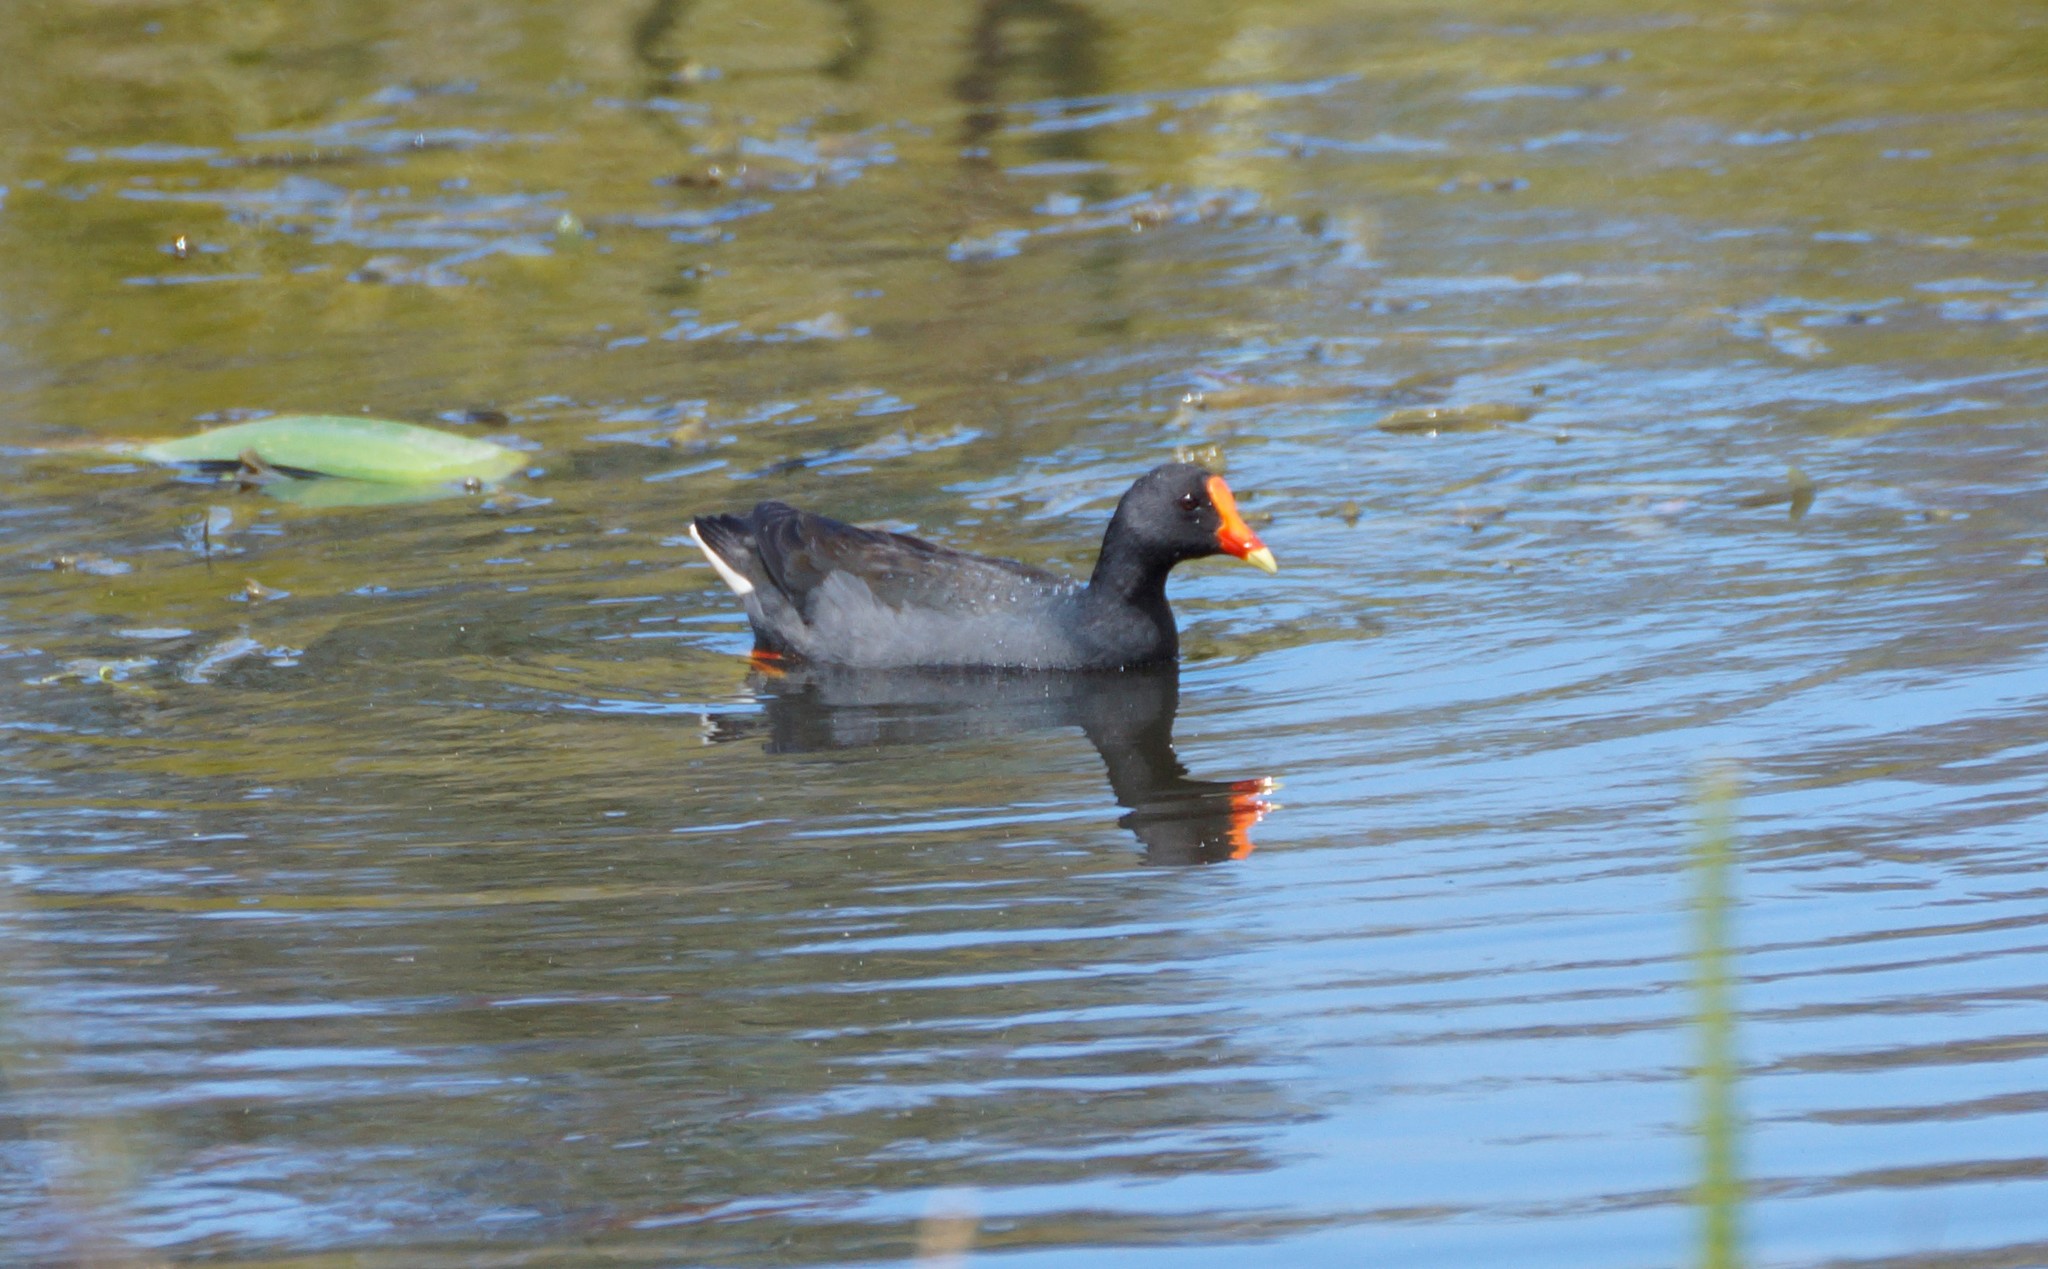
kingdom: Animalia
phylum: Chordata
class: Aves
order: Gruiformes
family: Rallidae
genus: Gallinula
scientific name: Gallinula tenebrosa
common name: Dusky moorhen
